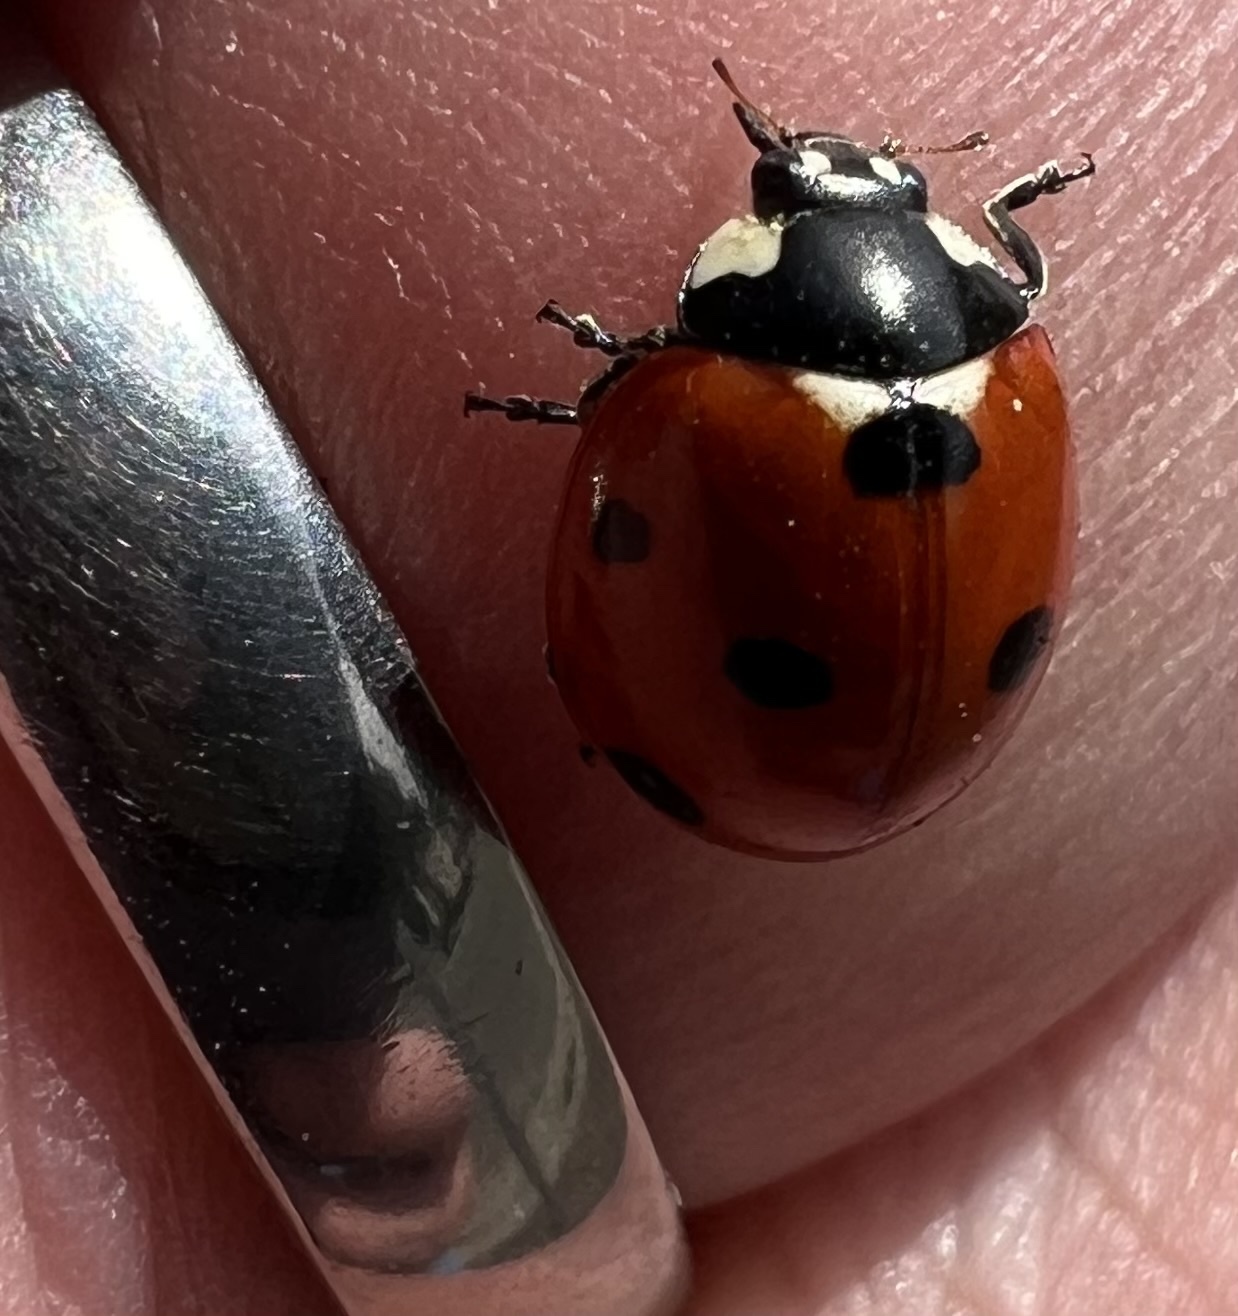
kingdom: Animalia
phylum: Arthropoda
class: Insecta
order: Coleoptera
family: Coccinellidae
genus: Coccinella
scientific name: Coccinella septempunctata
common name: Sevenspotted lady beetle
